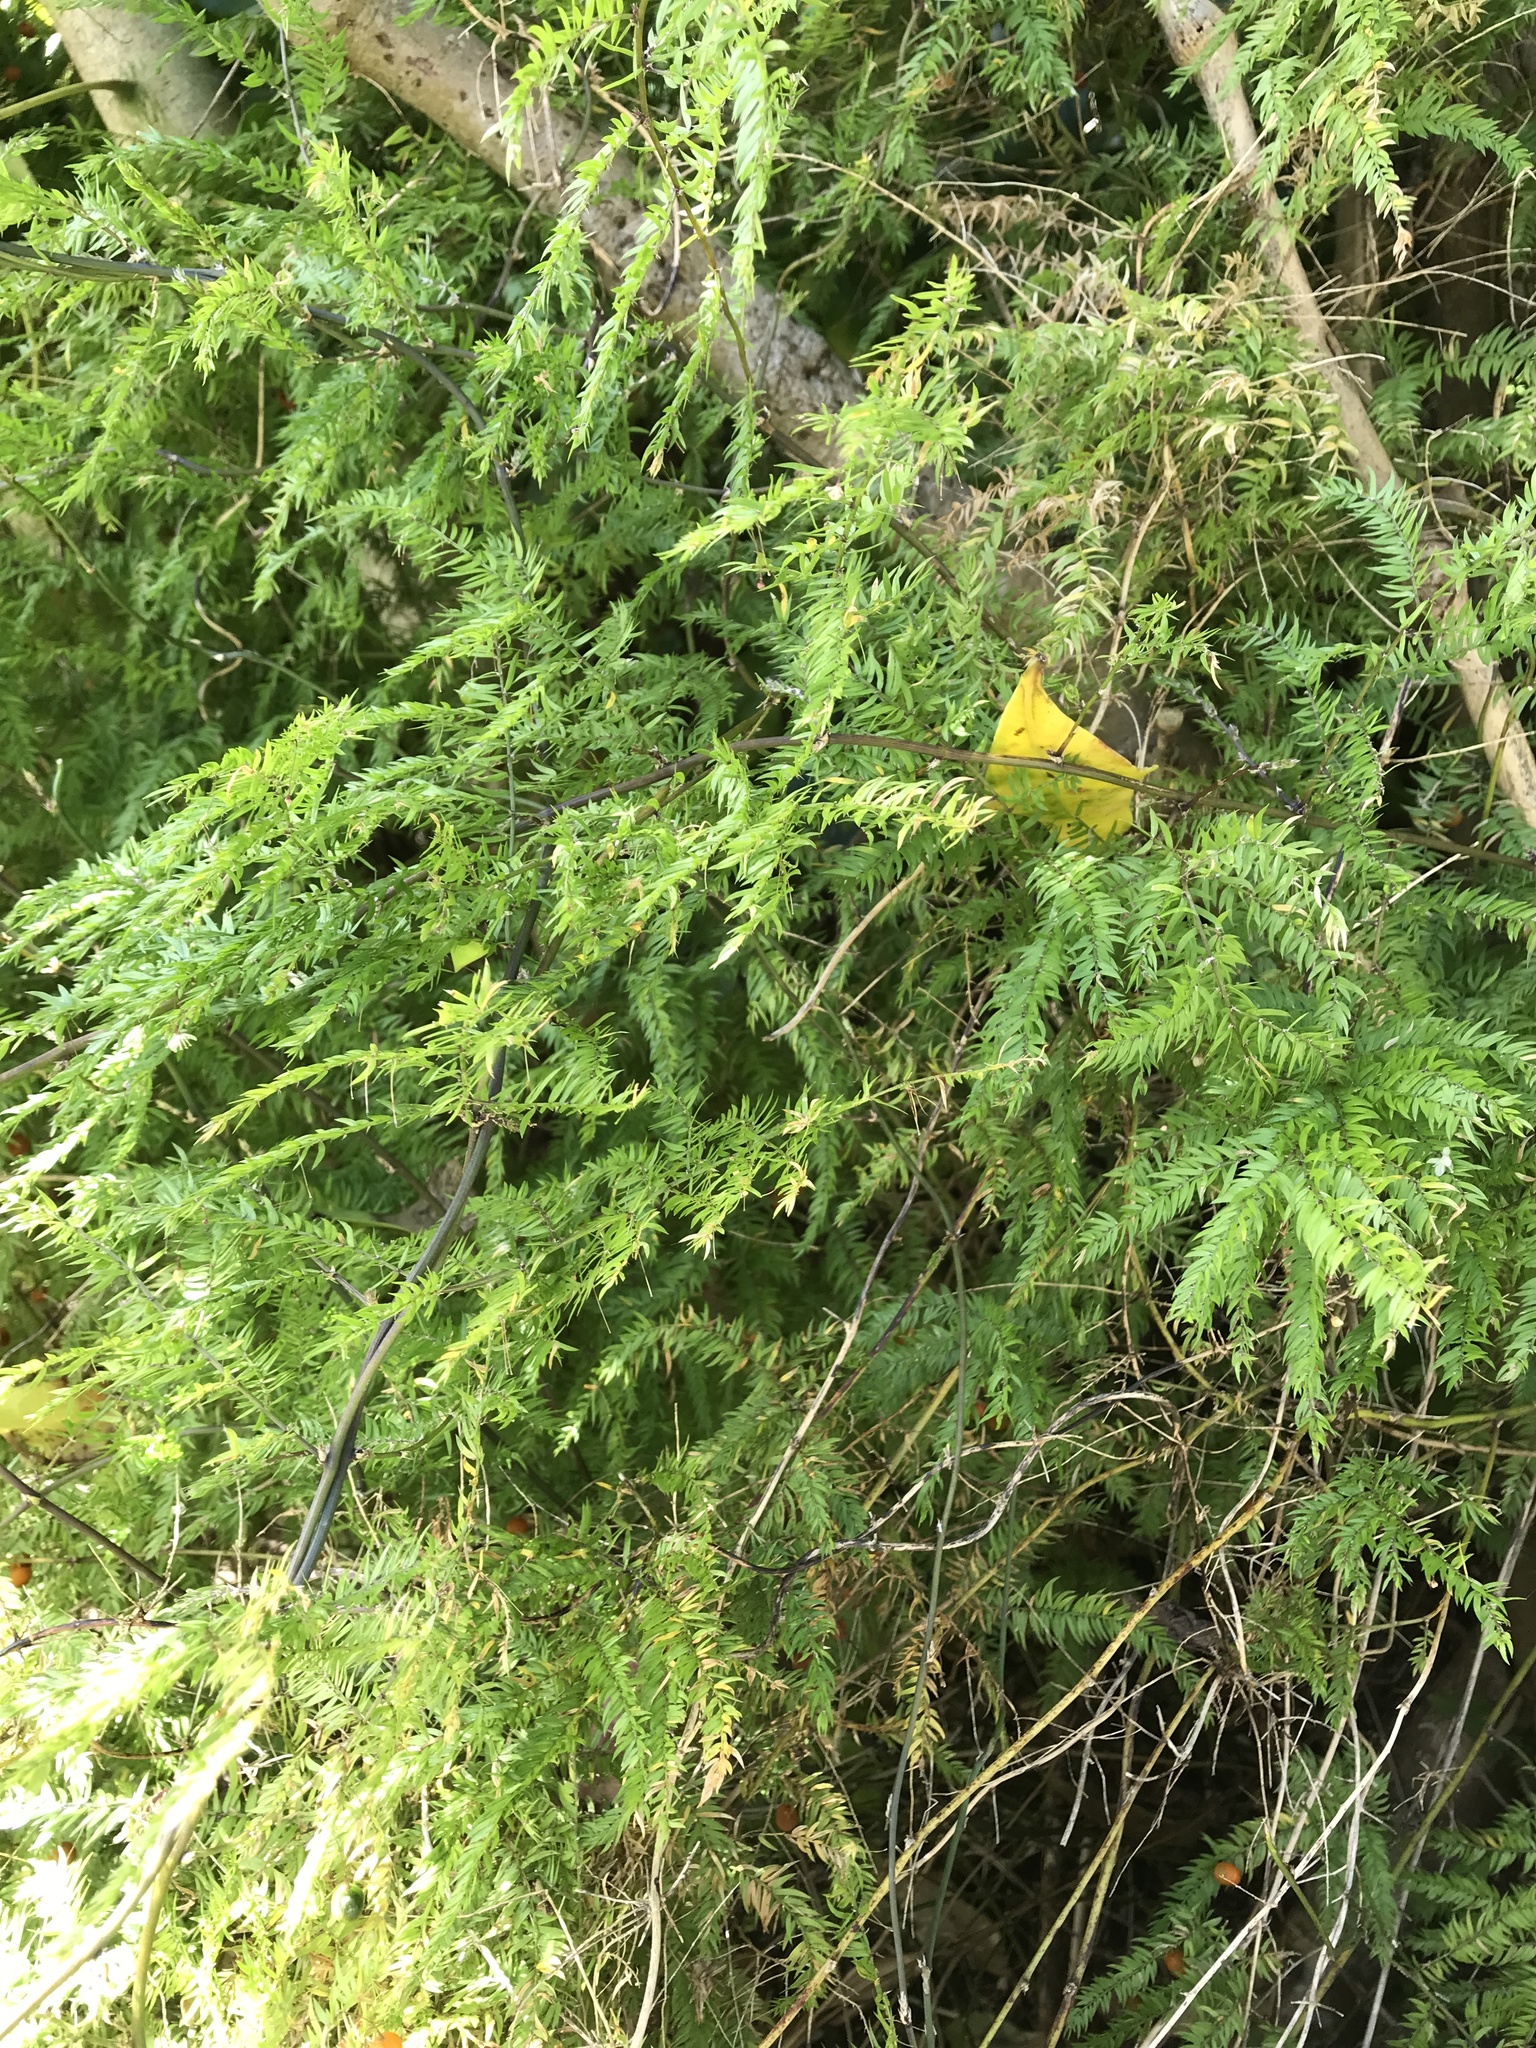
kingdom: Plantae
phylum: Tracheophyta
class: Liliopsida
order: Asparagales
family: Asparagaceae
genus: Asparagus
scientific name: Asparagus scandens
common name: Asparagus-fern
